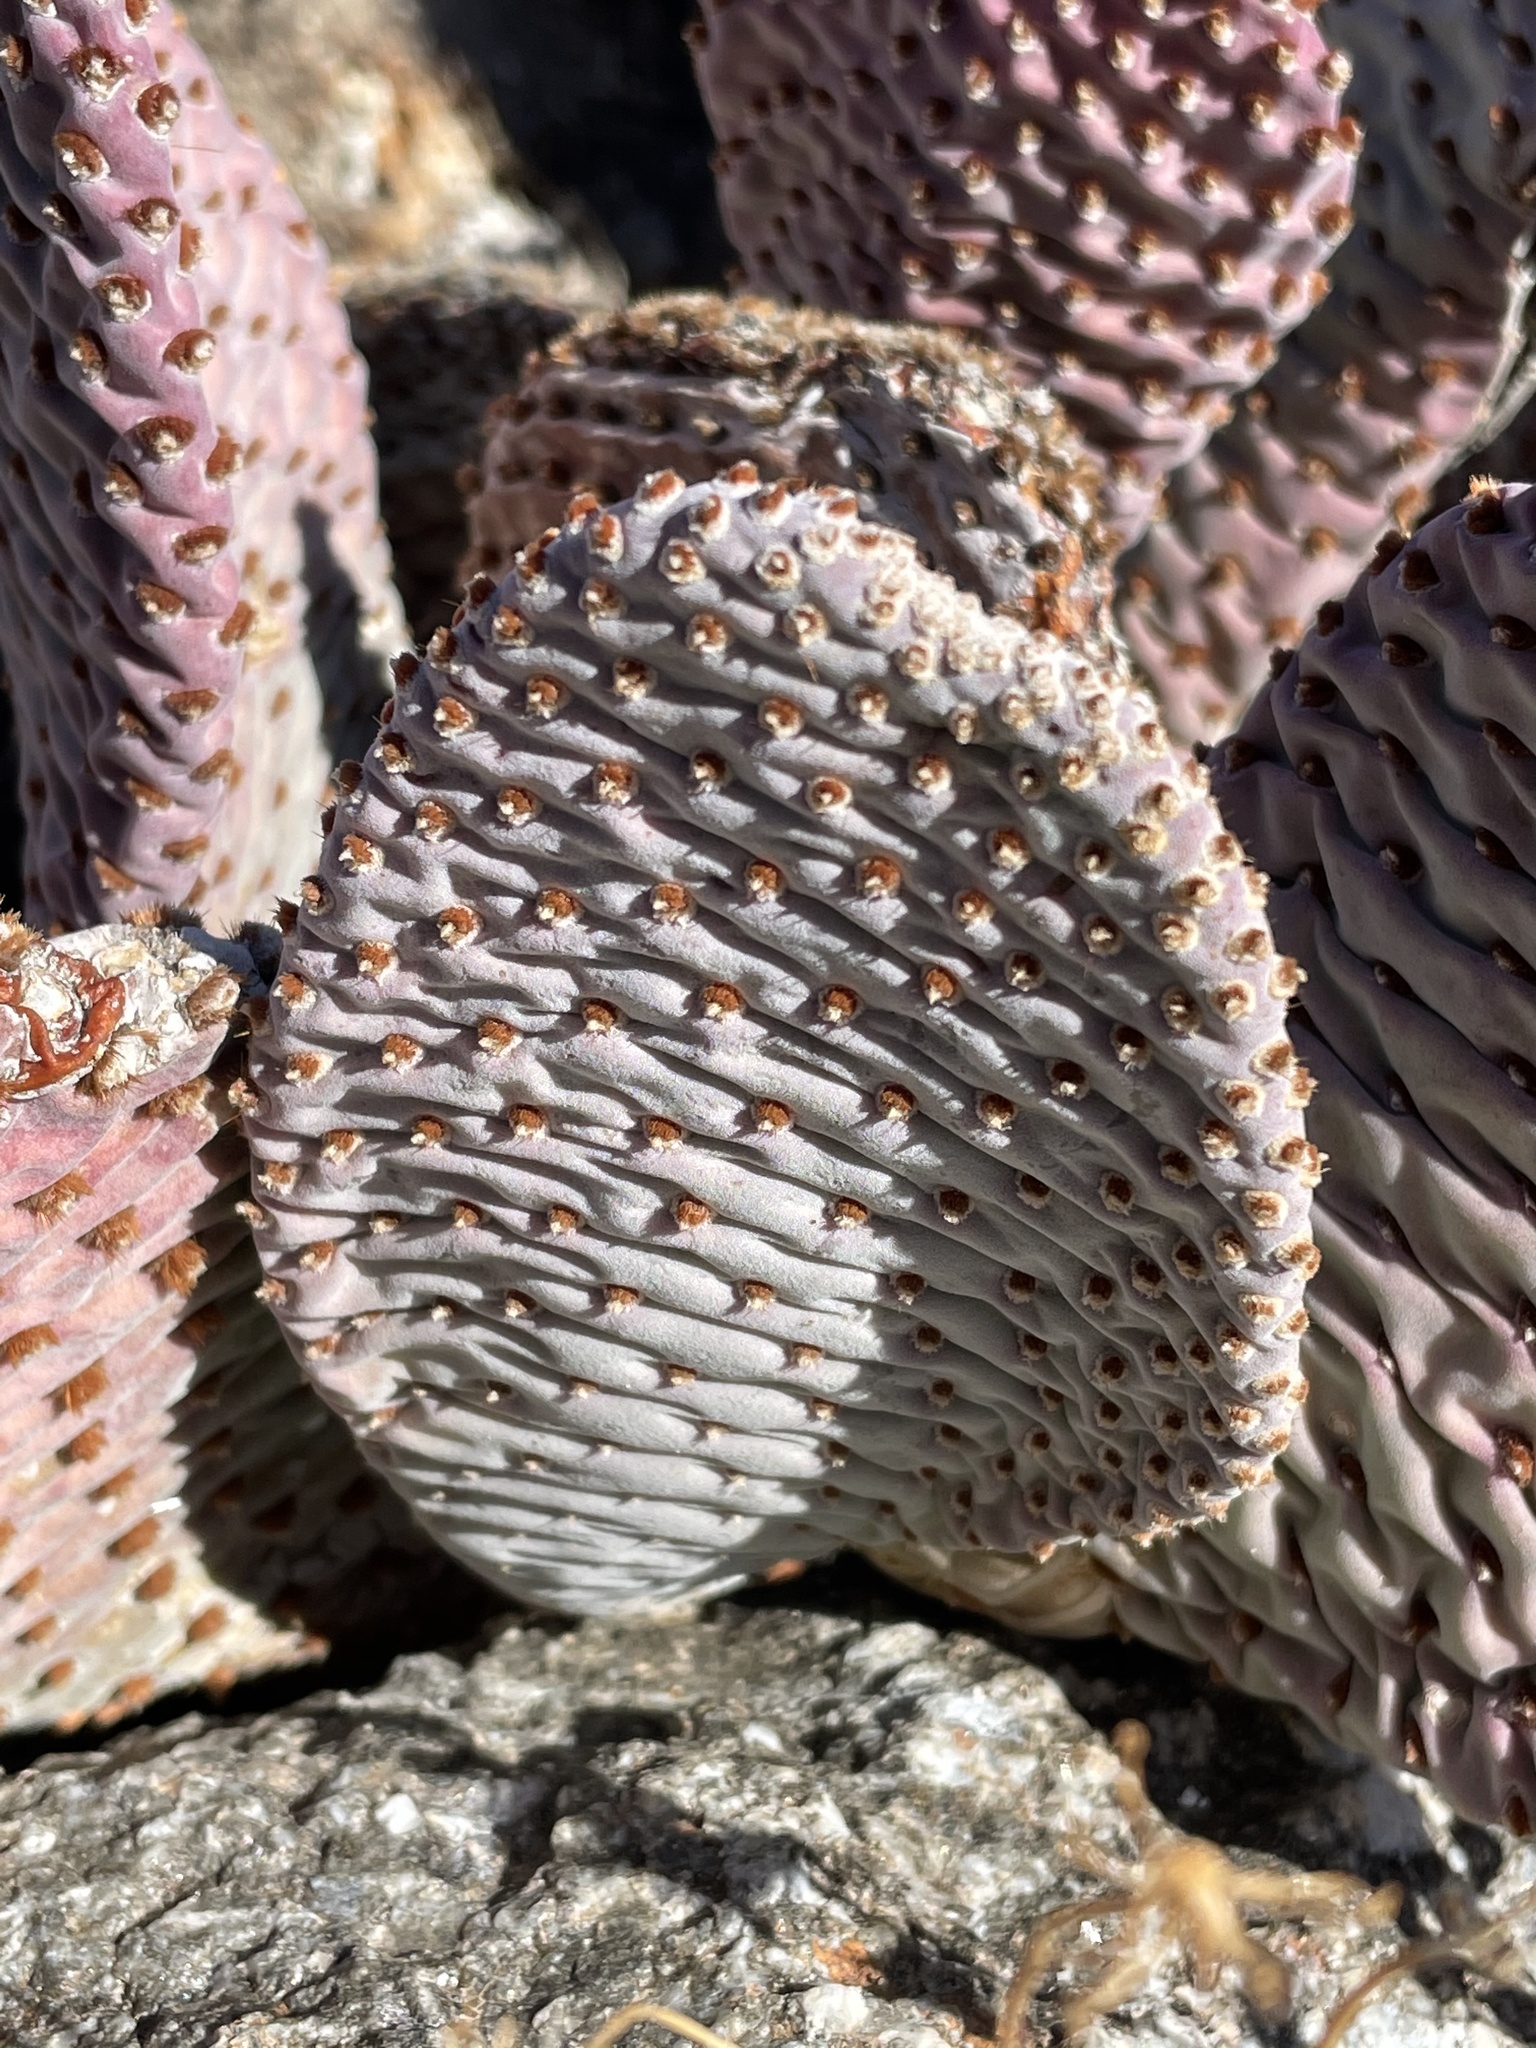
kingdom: Plantae
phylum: Tracheophyta
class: Magnoliopsida
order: Caryophyllales
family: Cactaceae
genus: Opuntia
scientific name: Opuntia basilaris
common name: Beavertail prickly-pear
